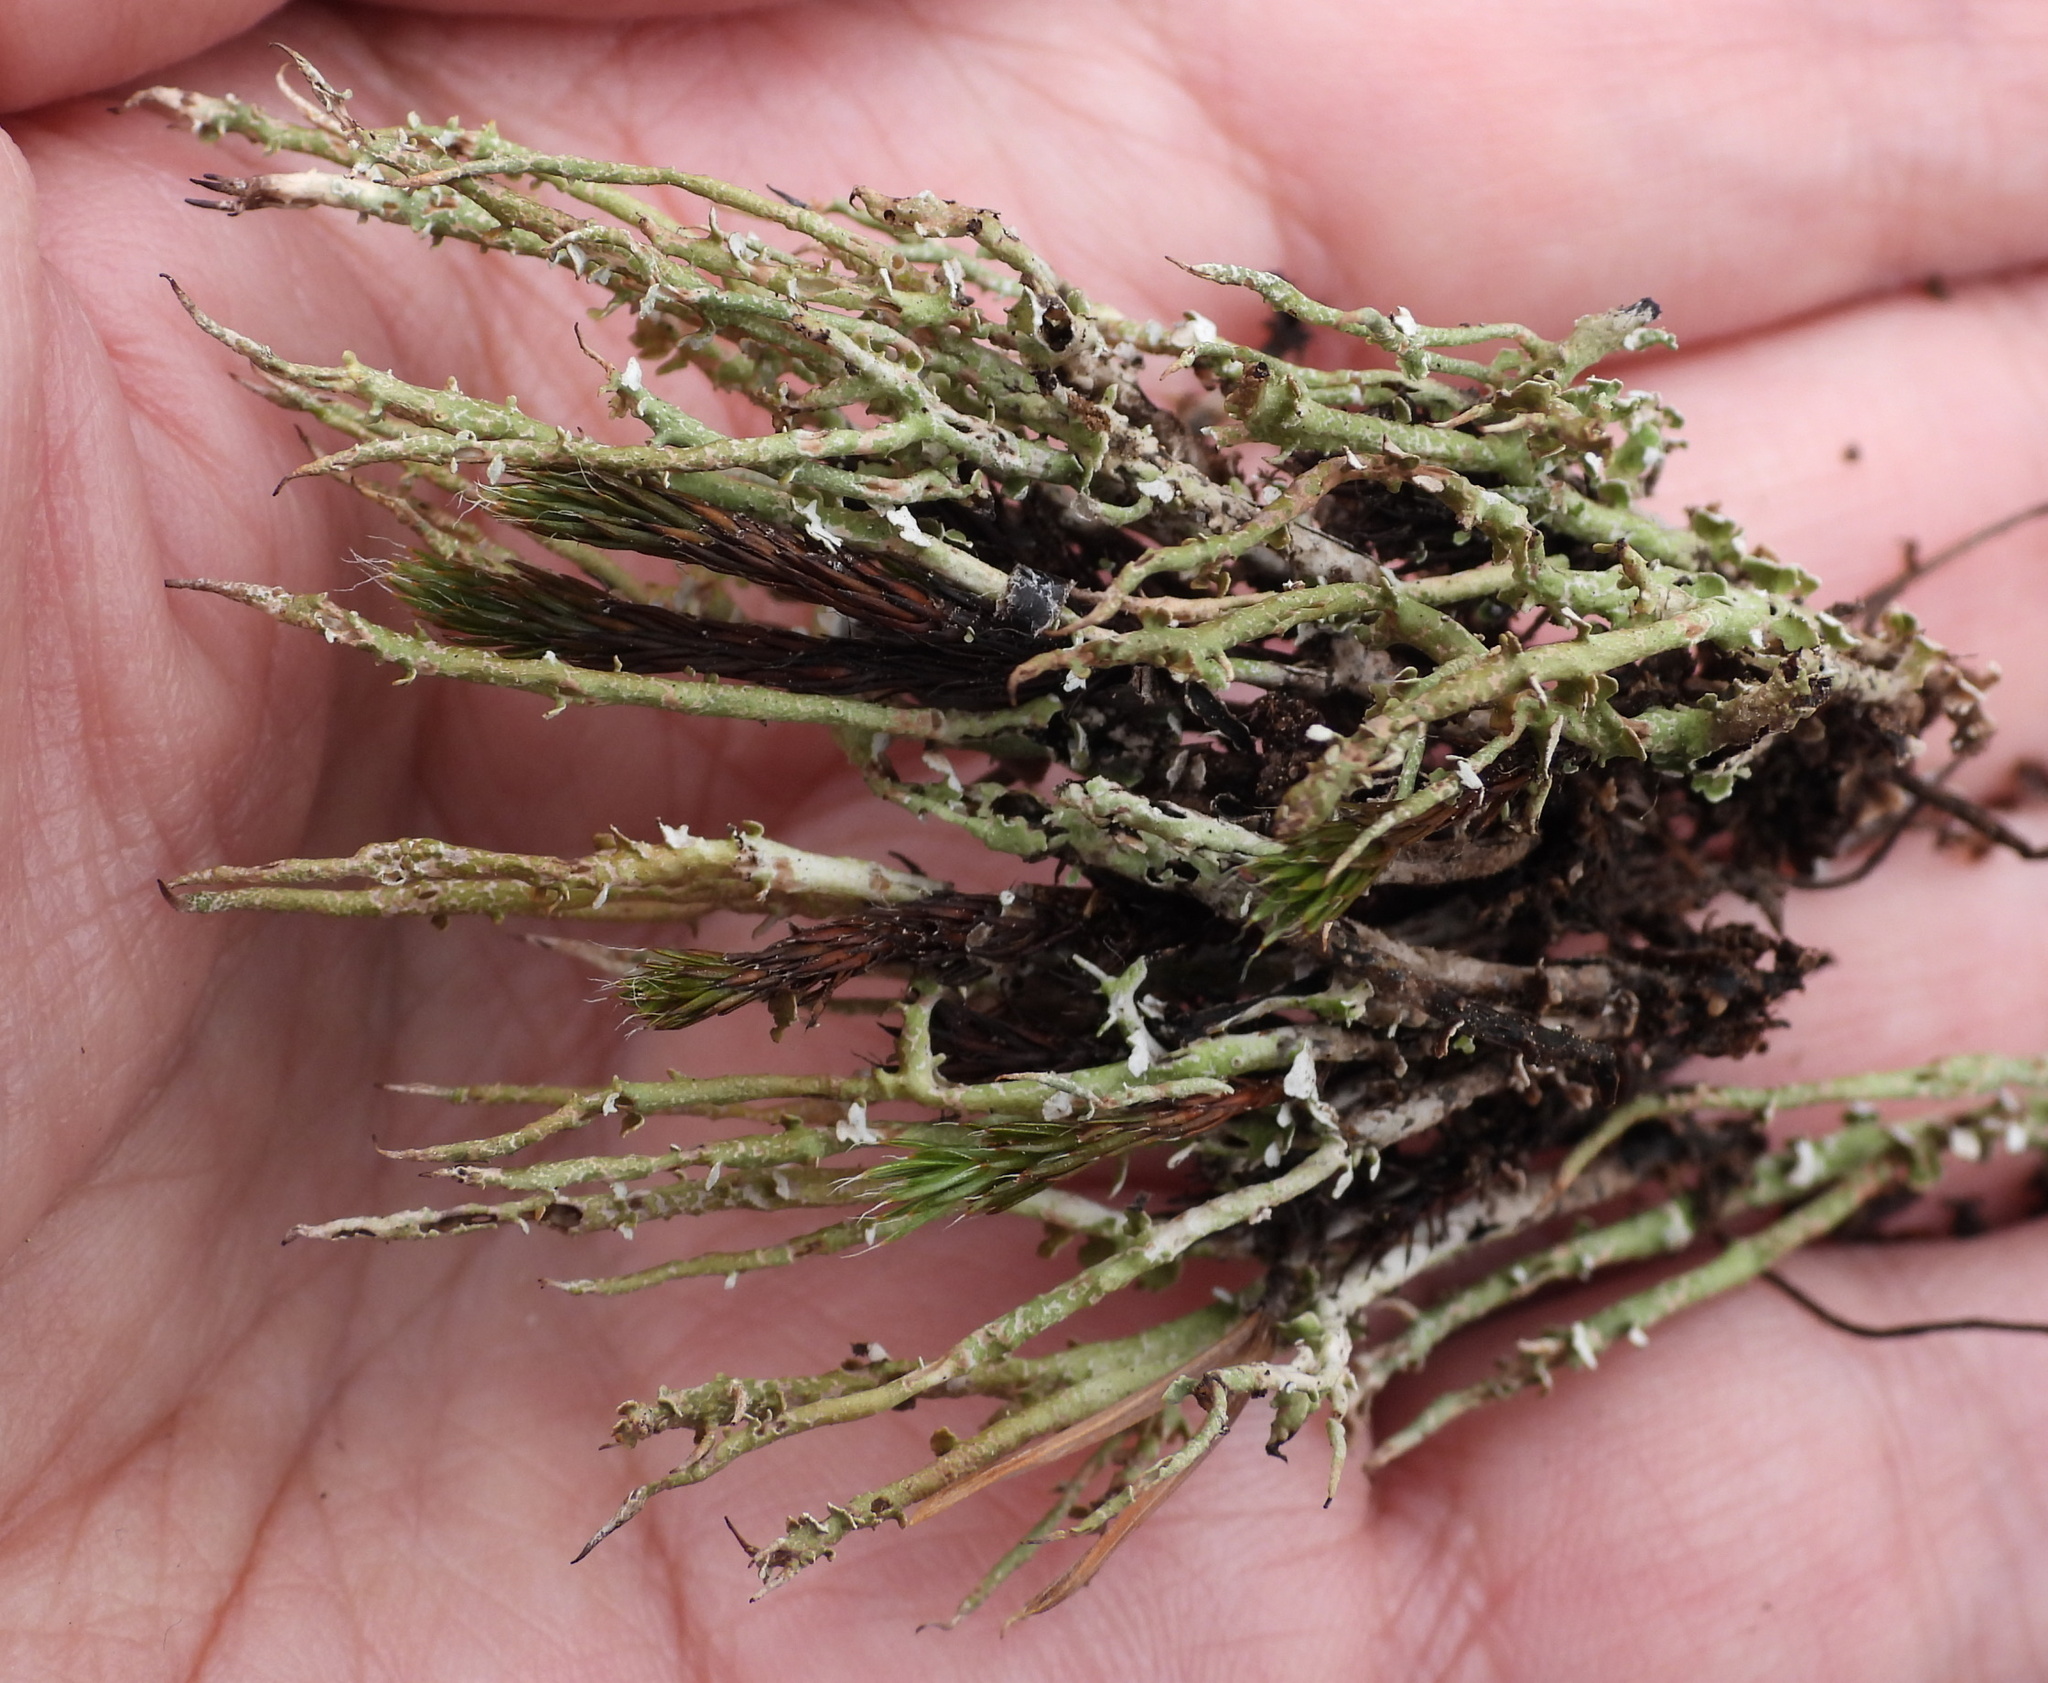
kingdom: Fungi
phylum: Ascomycota
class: Lecanoromycetes
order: Lecanorales
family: Cladoniaceae
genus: Cladonia
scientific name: Cladonia furcata
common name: Many-forked cladonia
